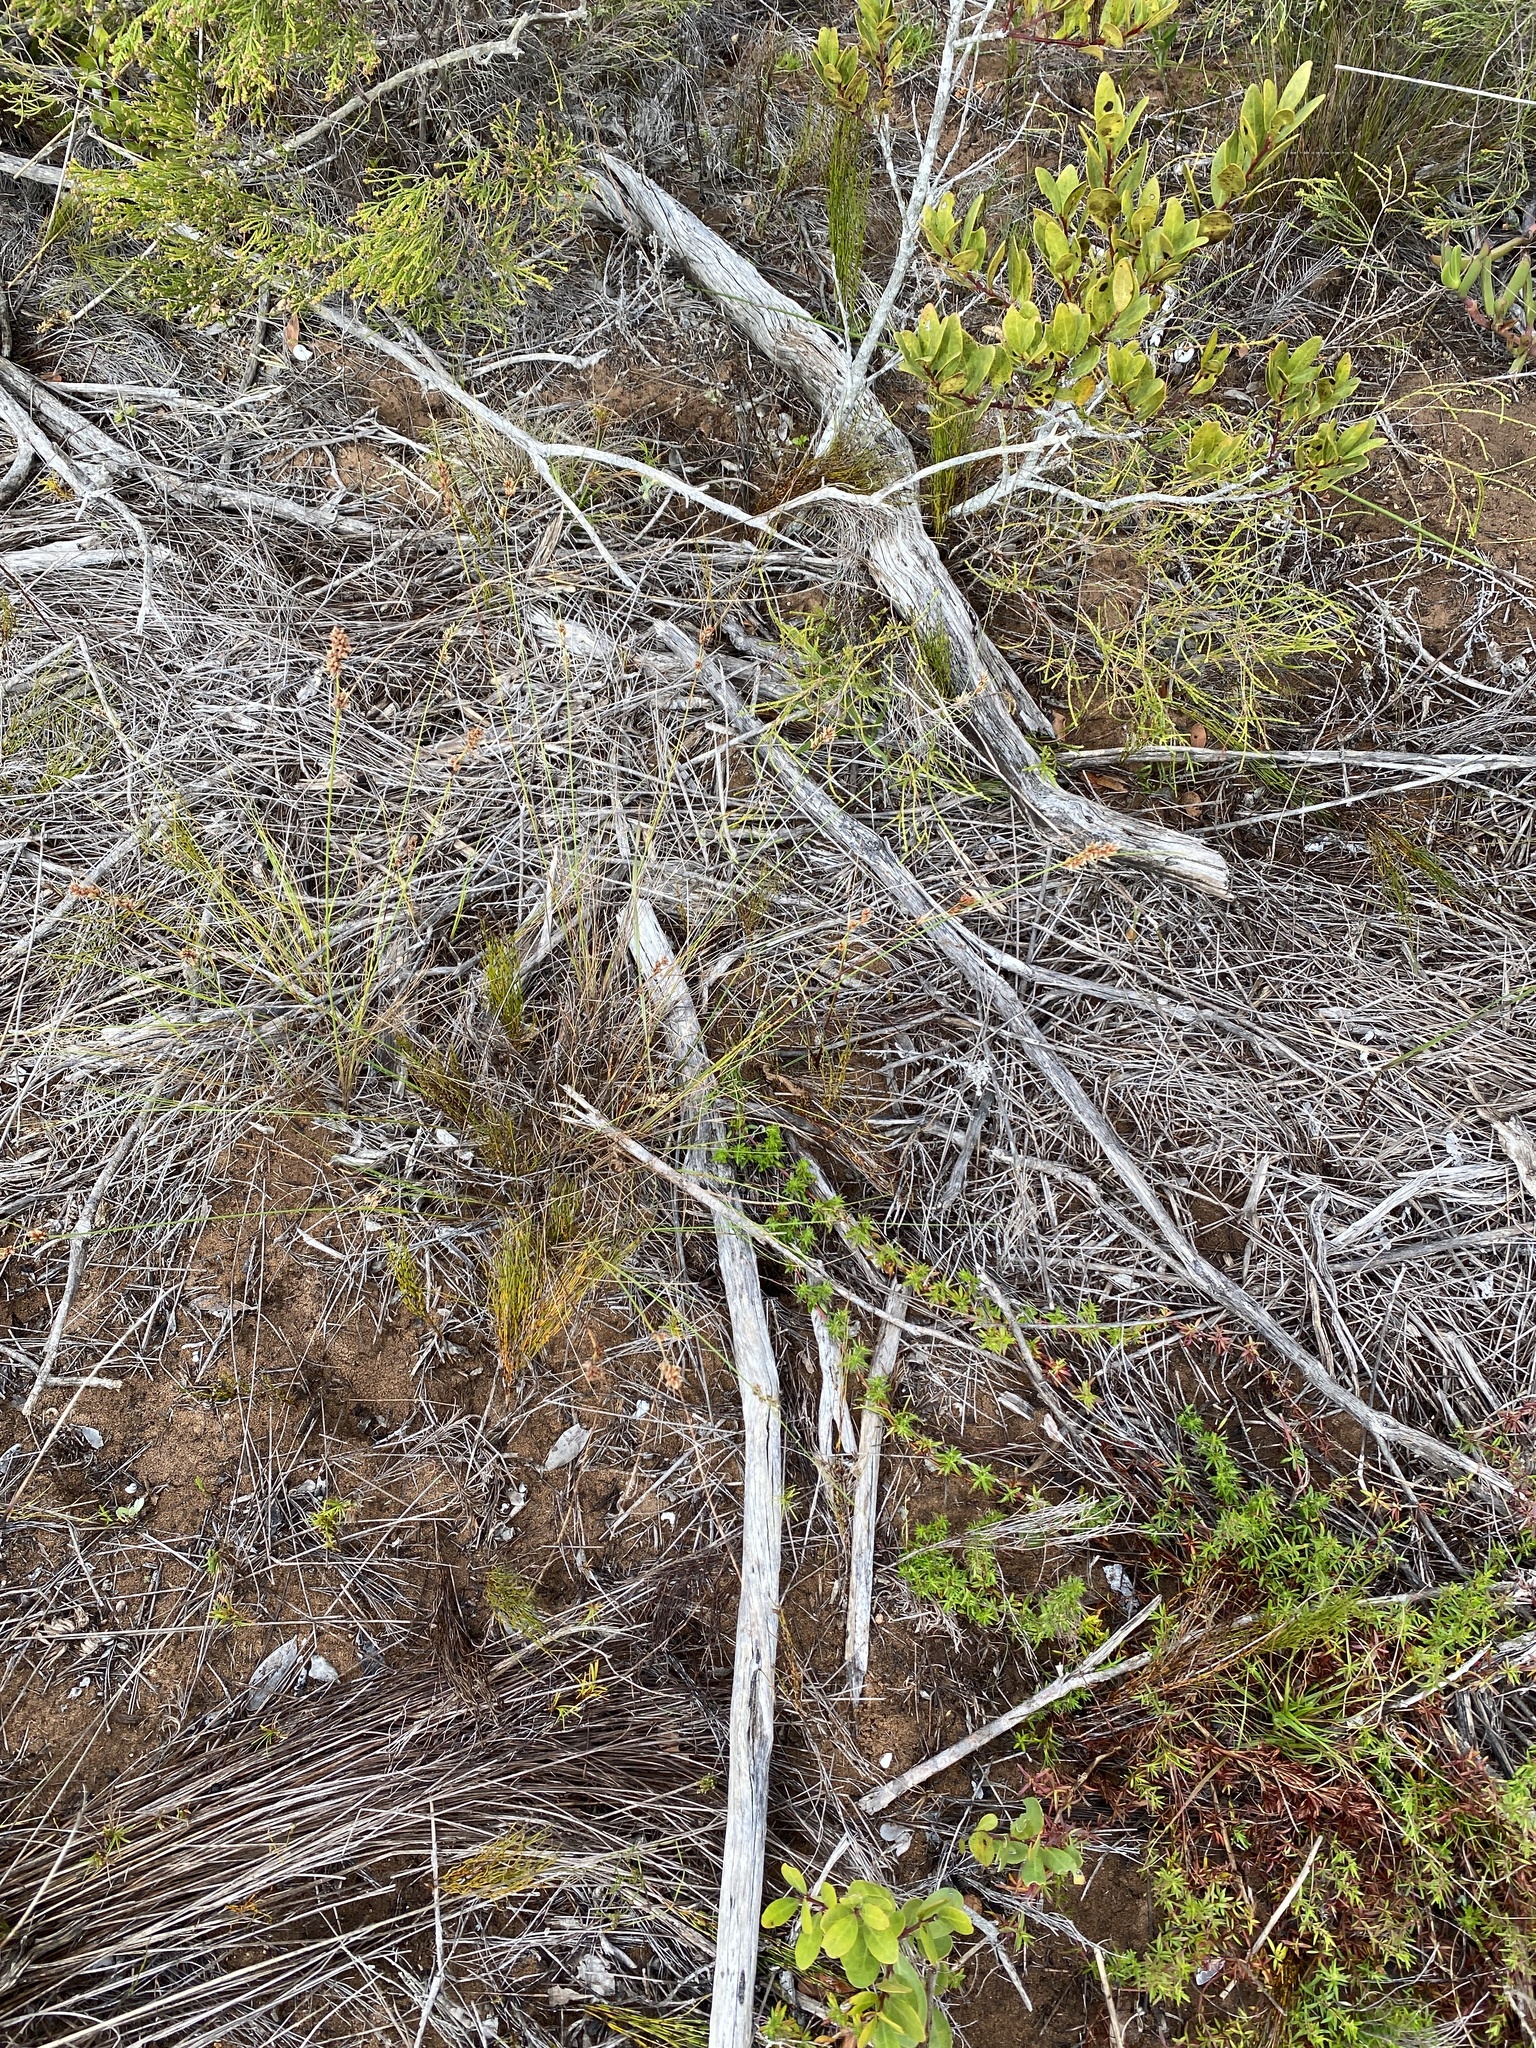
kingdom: Plantae
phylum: Tracheophyta
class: Liliopsida
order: Poales
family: Cyperaceae
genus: Ficinia
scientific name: Ficinia bulbosa
